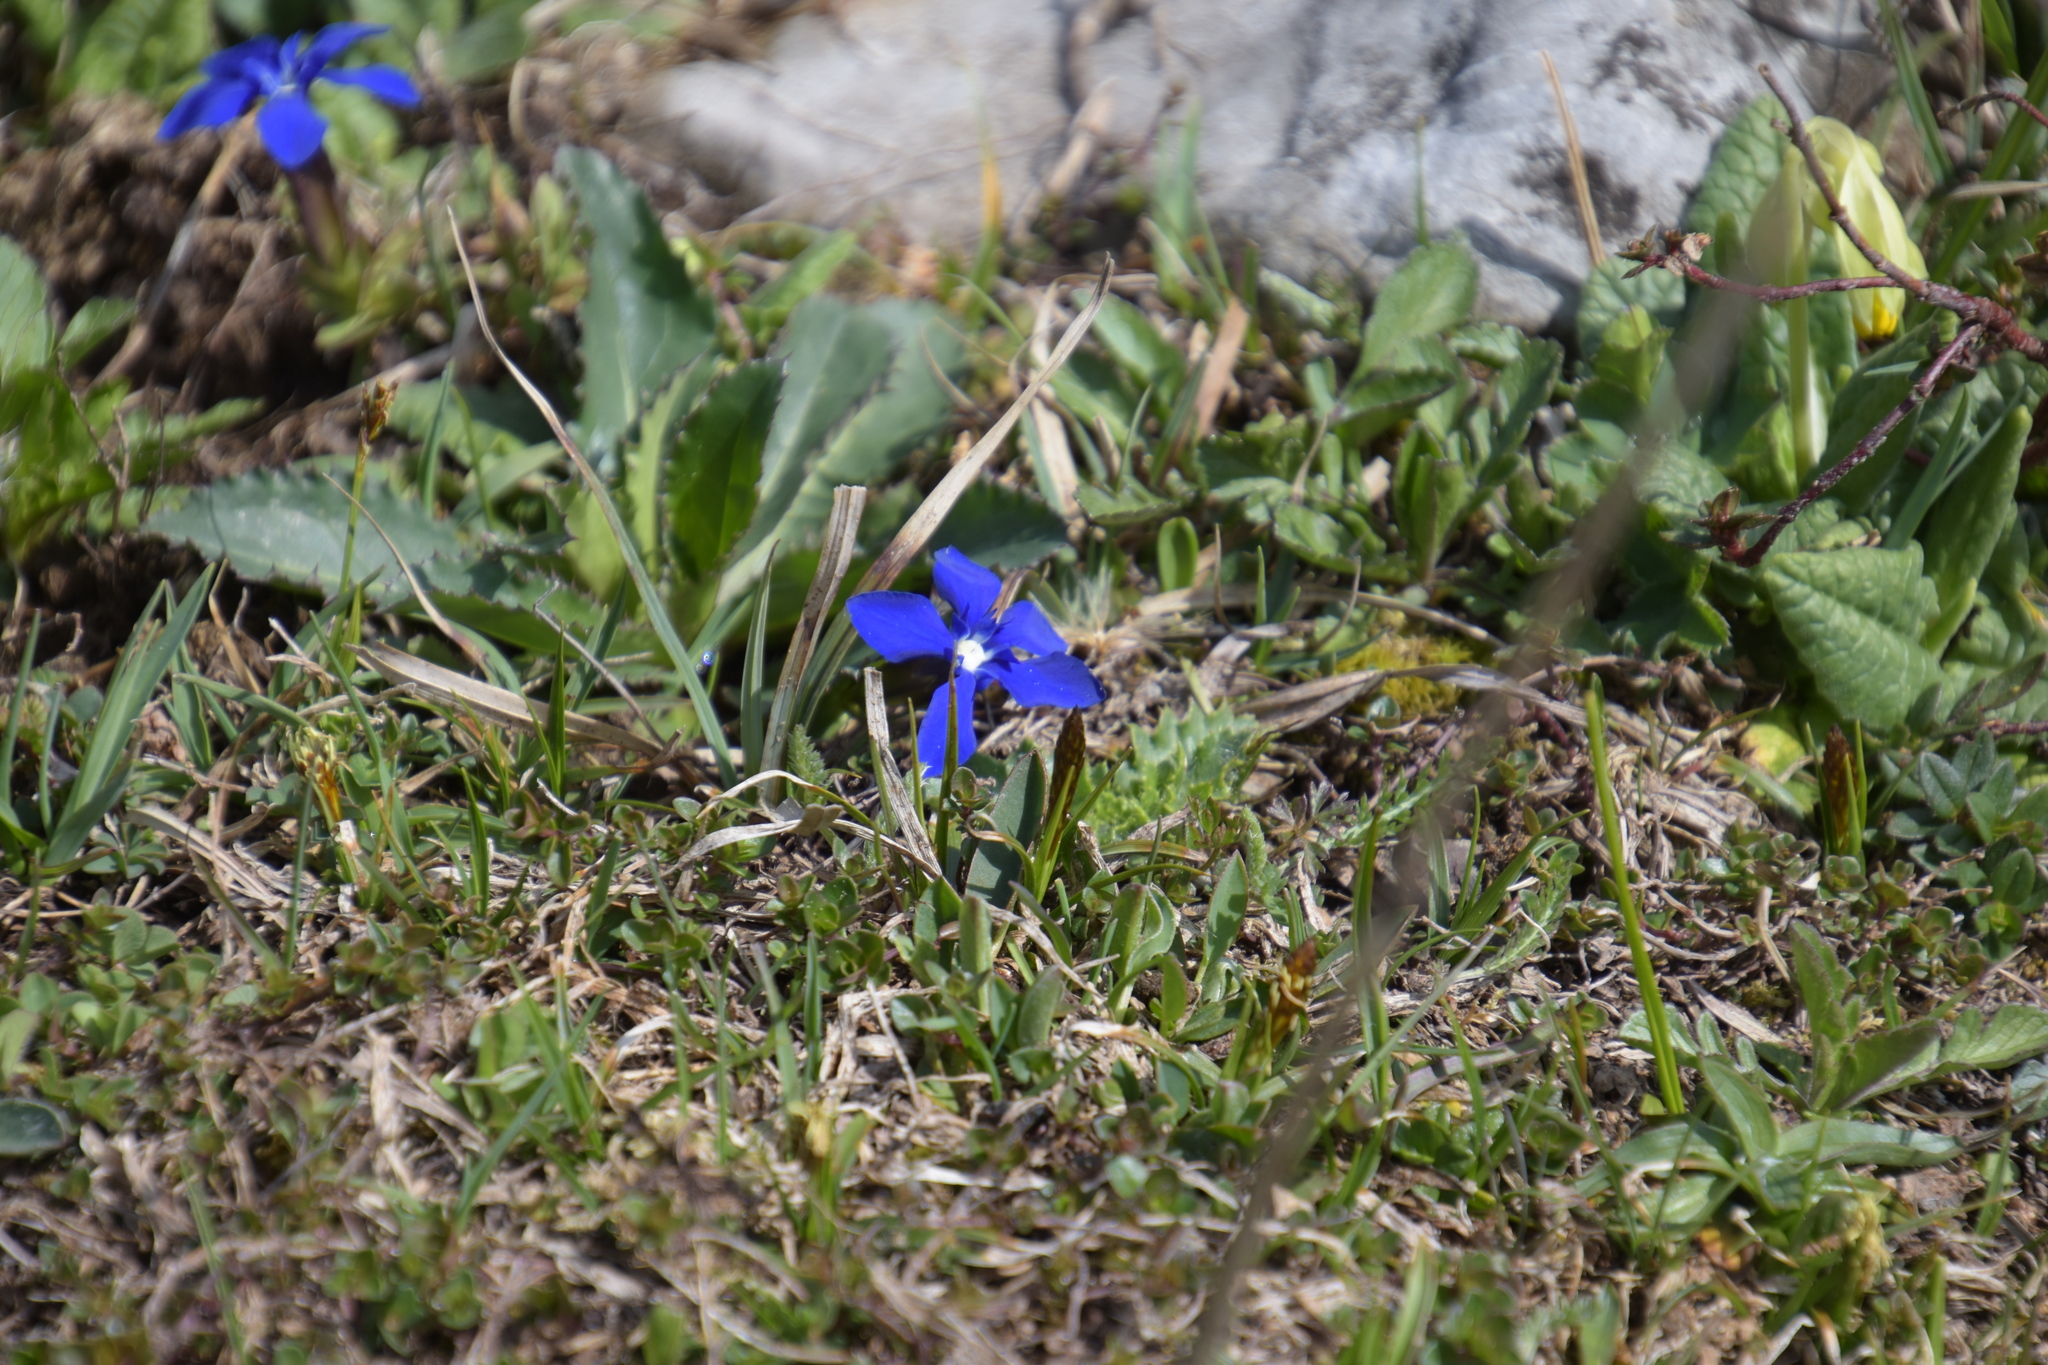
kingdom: Plantae
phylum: Tracheophyta
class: Magnoliopsida
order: Gentianales
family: Gentianaceae
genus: Gentiana
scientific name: Gentiana verna
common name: Spring gentian
